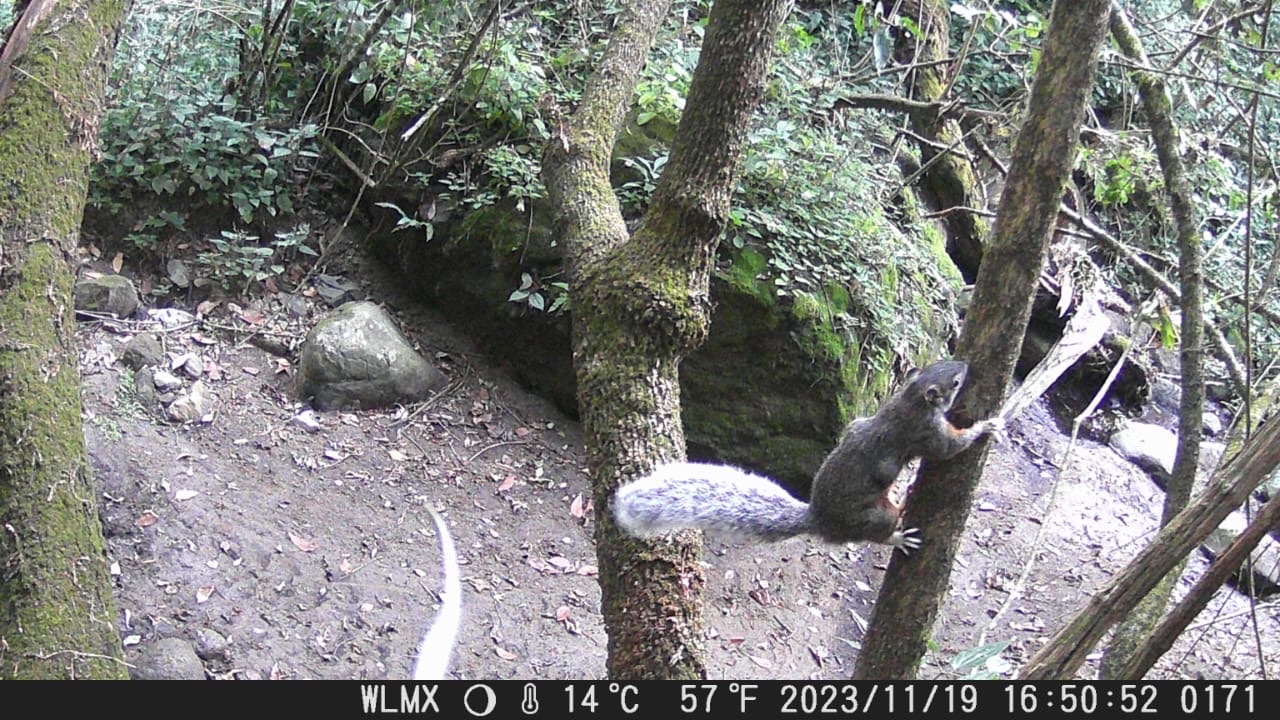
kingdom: Animalia
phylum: Chordata
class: Mammalia
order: Rodentia
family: Sciuridae
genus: Sciurus
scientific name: Sciurus aureogaster
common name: Red-bellied squirrel
